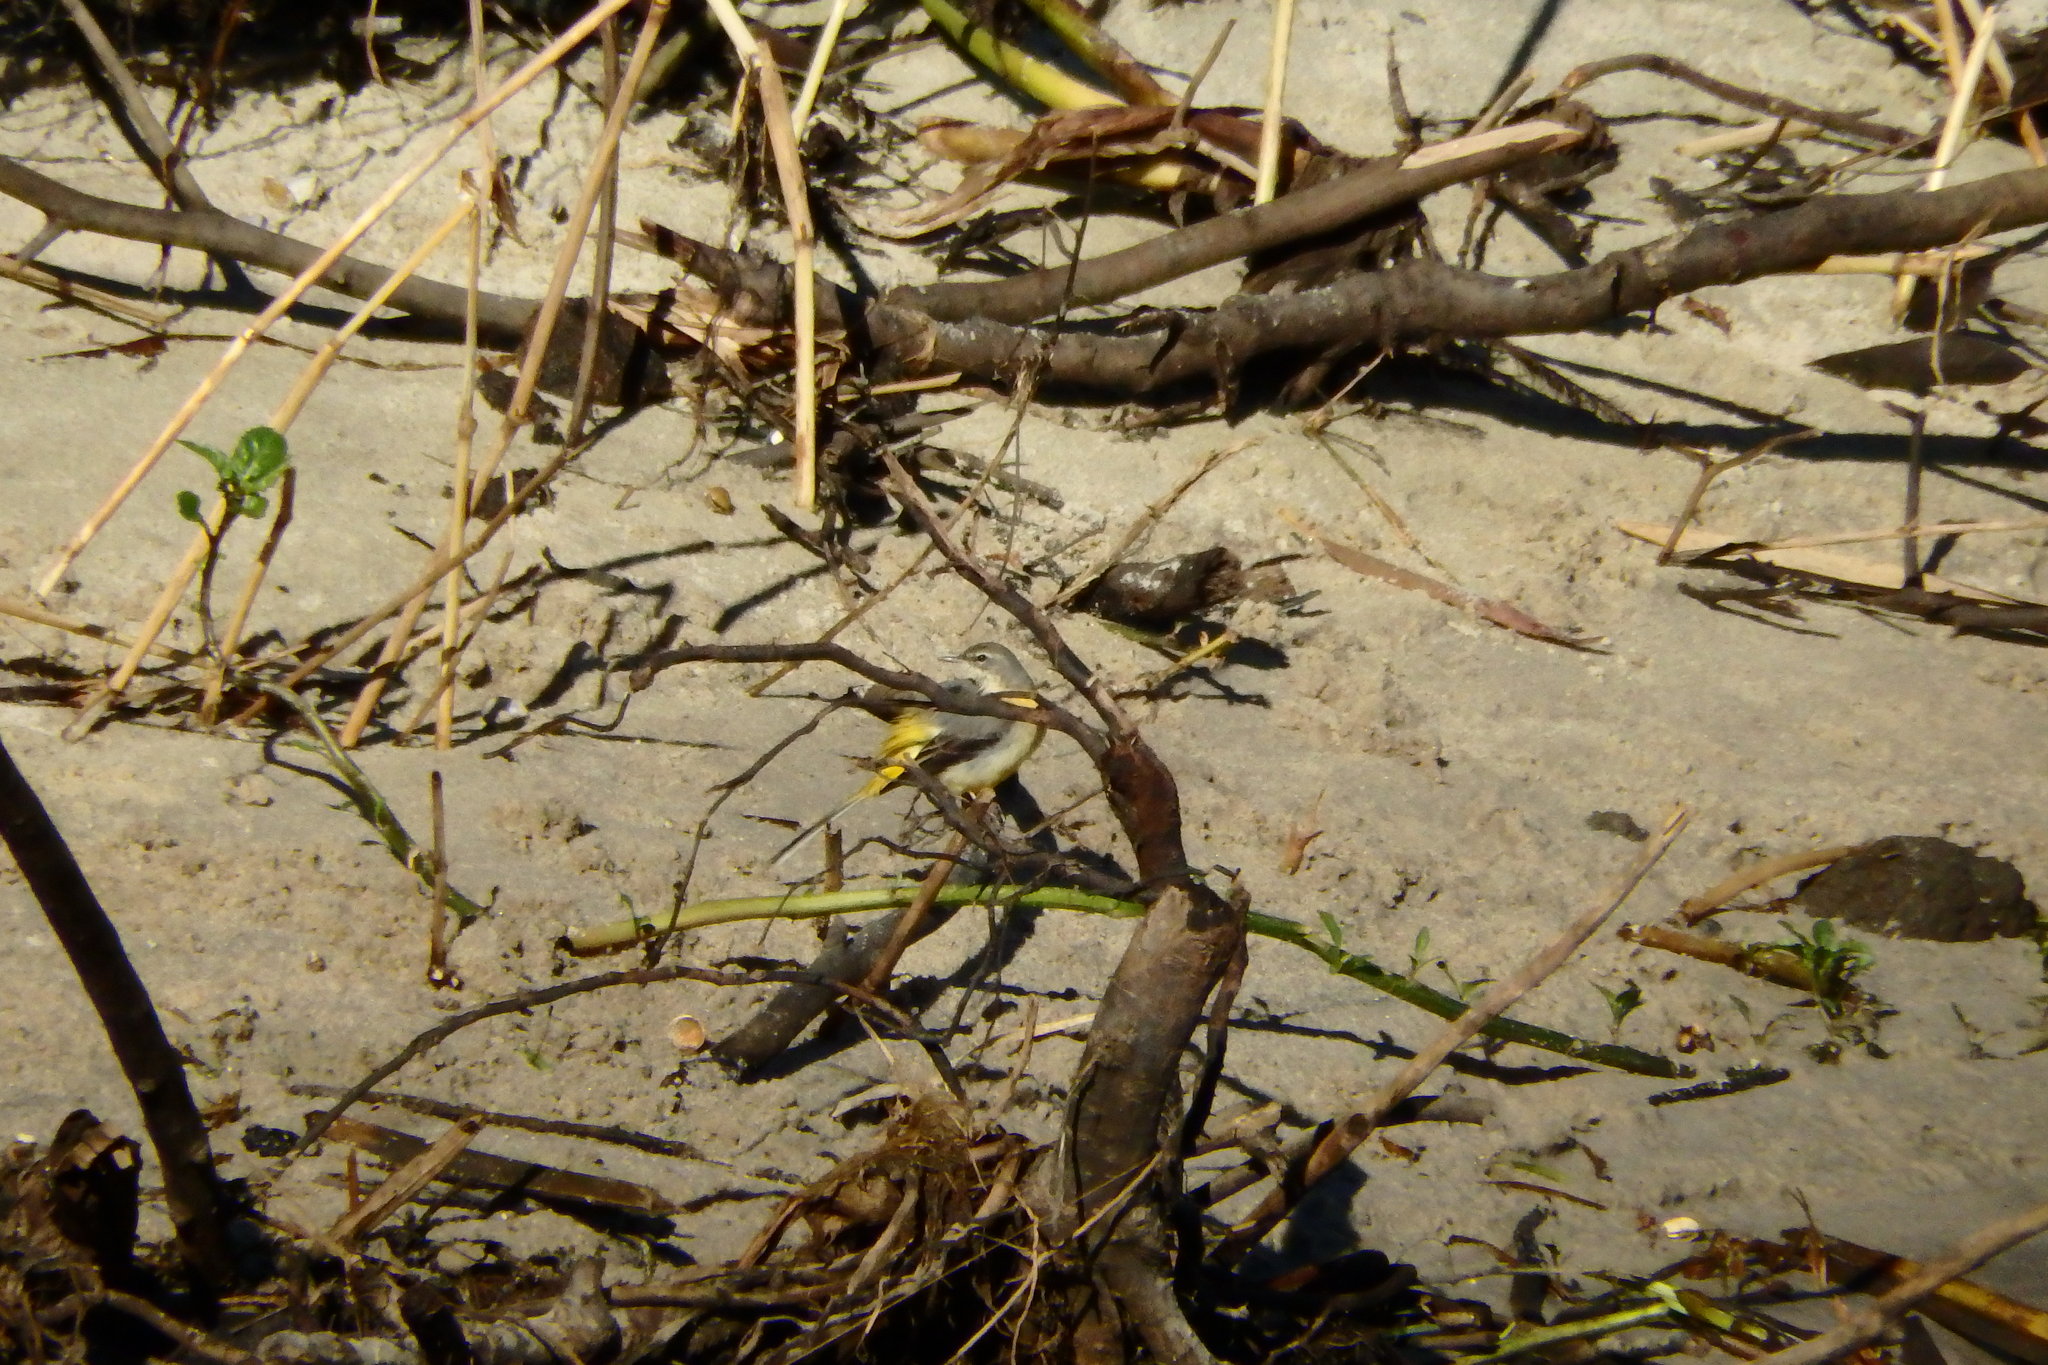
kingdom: Animalia
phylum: Chordata
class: Aves
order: Passeriformes
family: Motacillidae
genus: Motacilla
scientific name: Motacilla cinerea
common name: Grey wagtail
